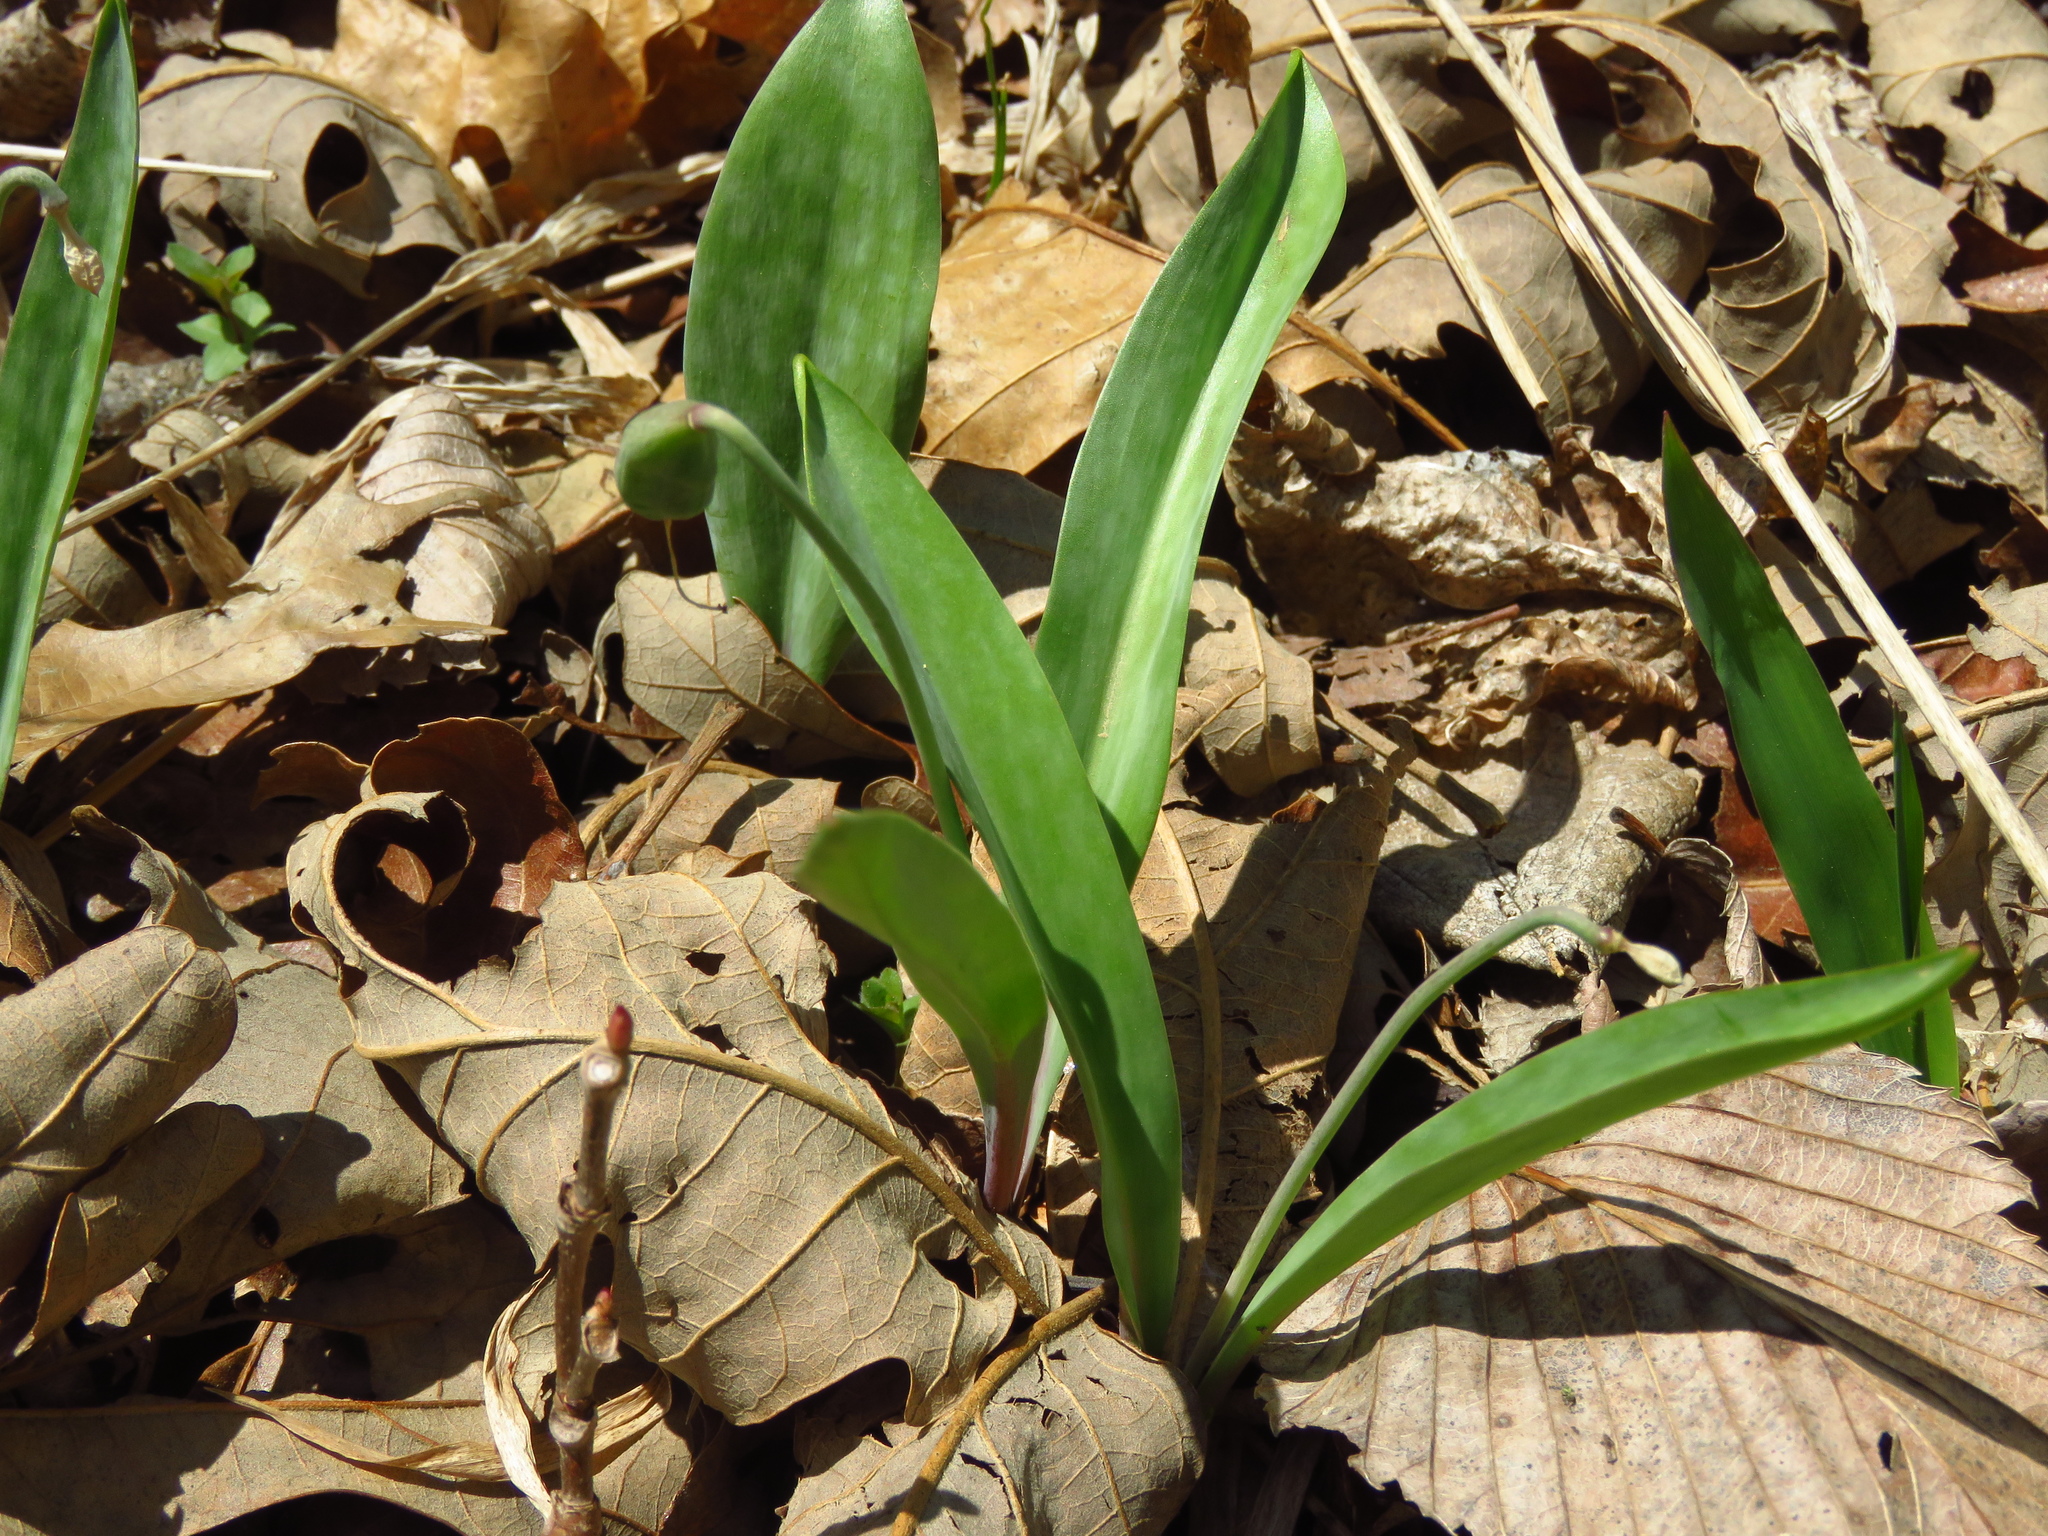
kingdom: Plantae
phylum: Tracheophyta
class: Liliopsida
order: Liliales
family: Liliaceae
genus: Erythronium
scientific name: Erythronium albidum
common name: White trout-lily
